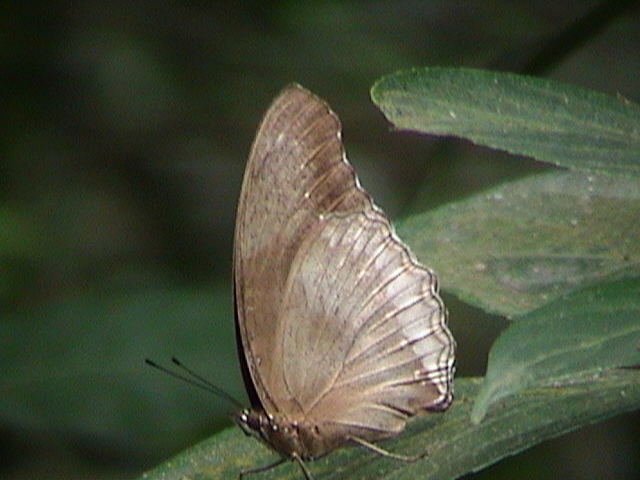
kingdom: Animalia
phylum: Arthropoda
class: Insecta
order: Lepidoptera
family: Nymphalidae
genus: Hypolimnas
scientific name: Hypolimnas bolina
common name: Great eggfly
